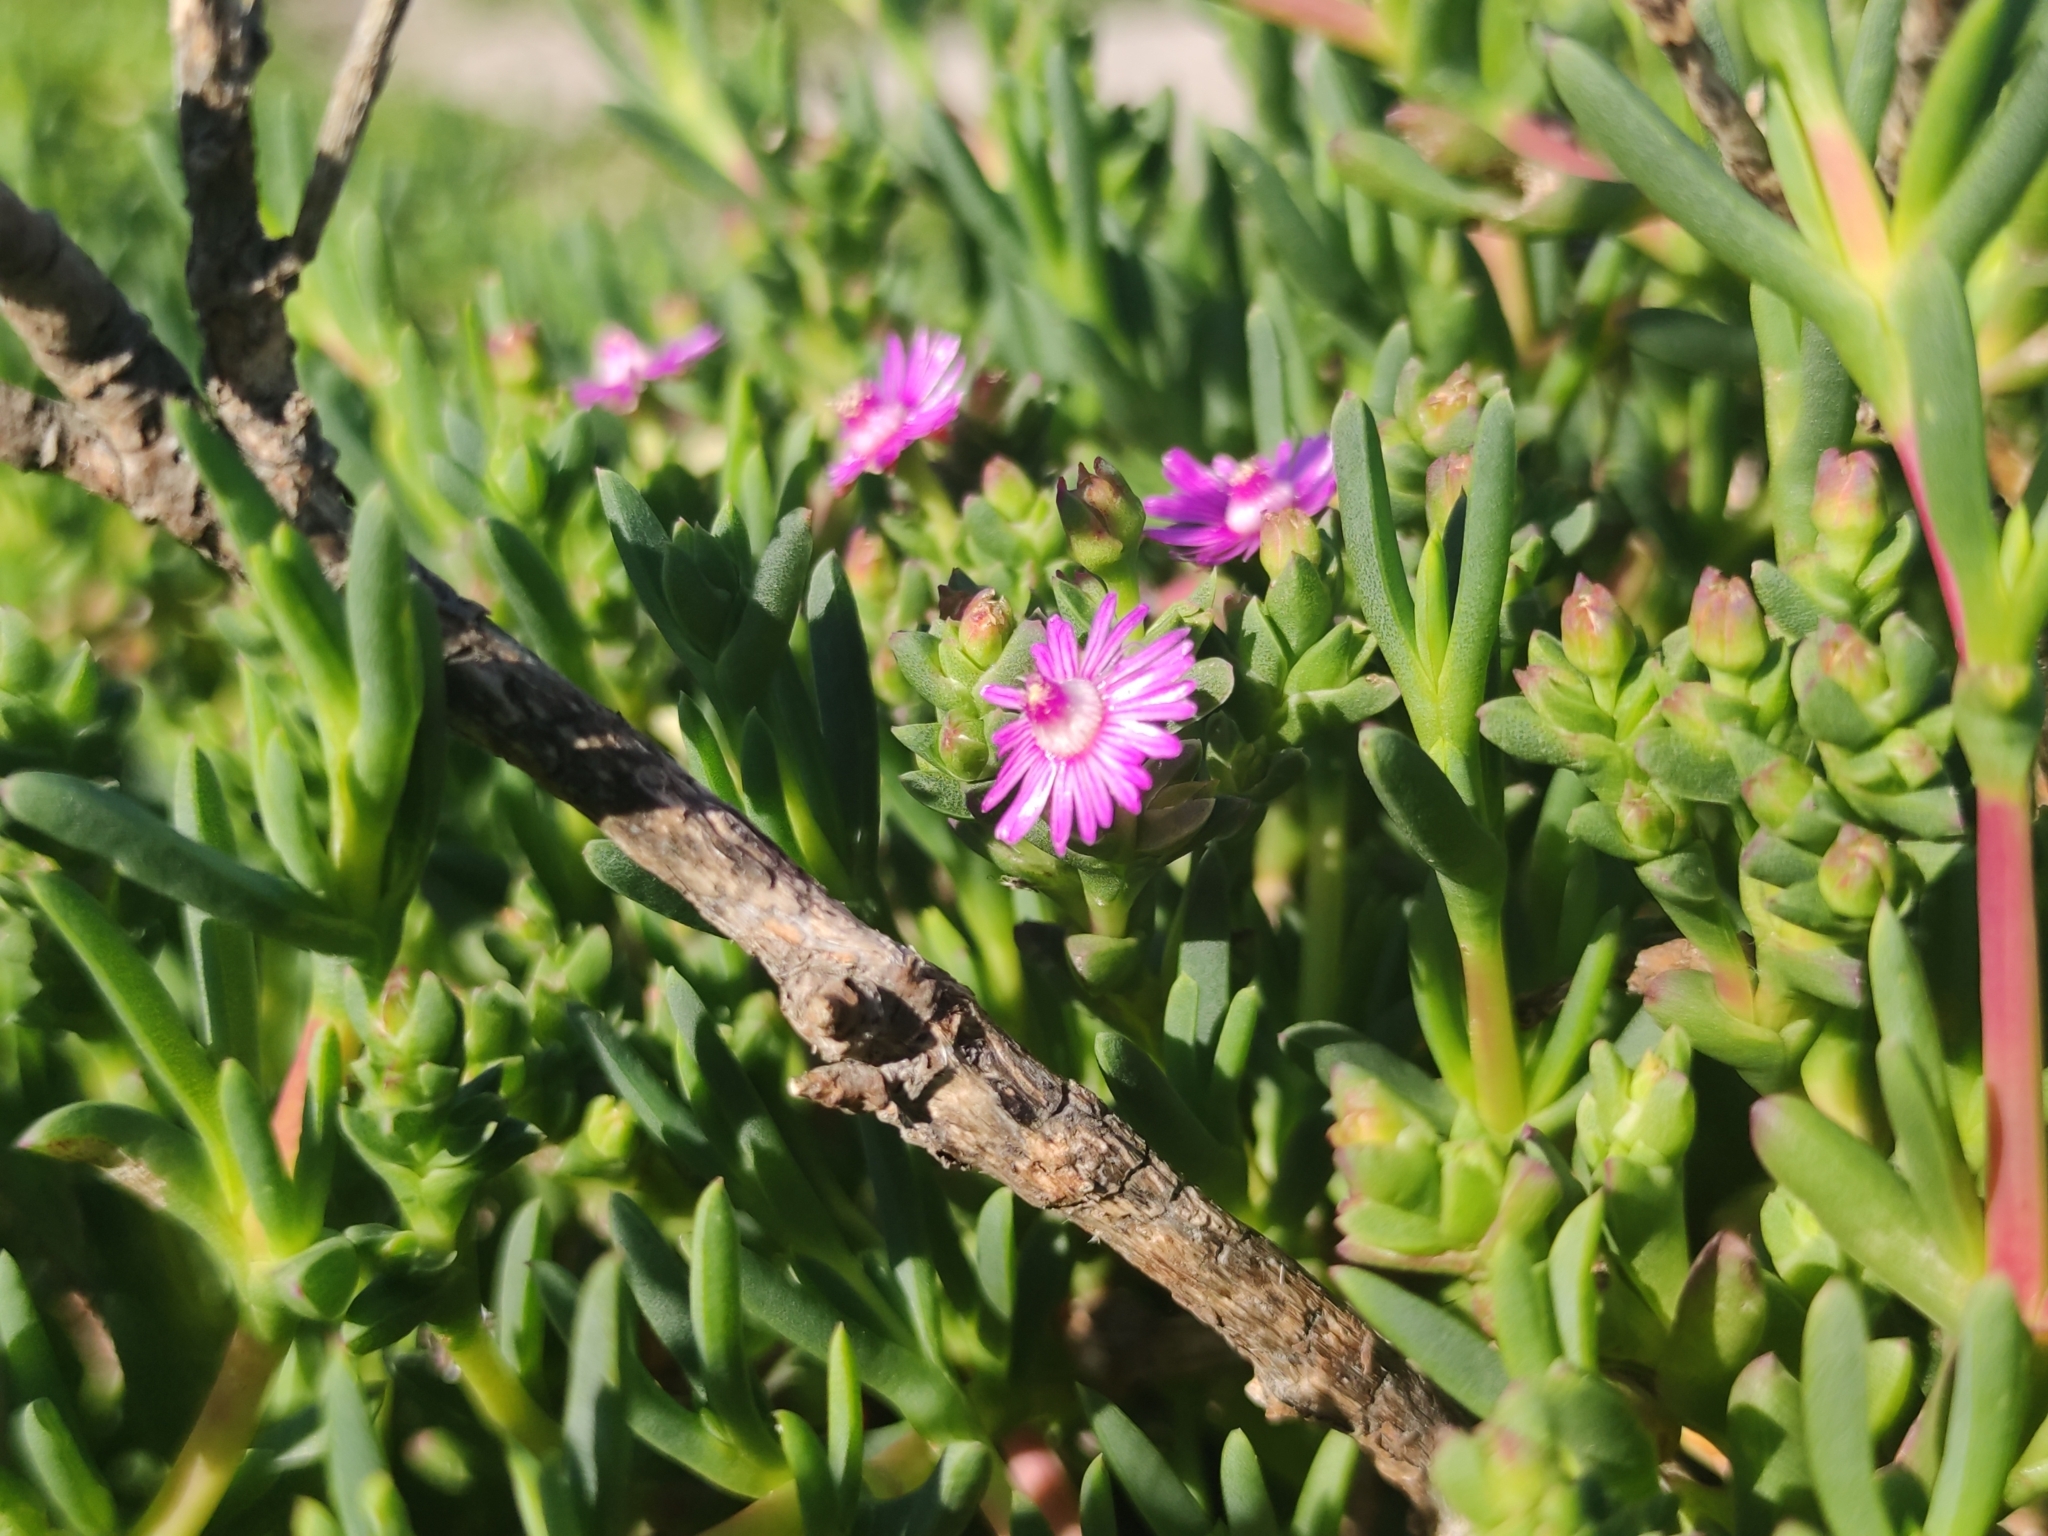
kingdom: Plantae
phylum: Tracheophyta
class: Magnoliopsida
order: Caryophyllales
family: Aizoaceae
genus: Ruschia
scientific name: Ruschia macowanii
